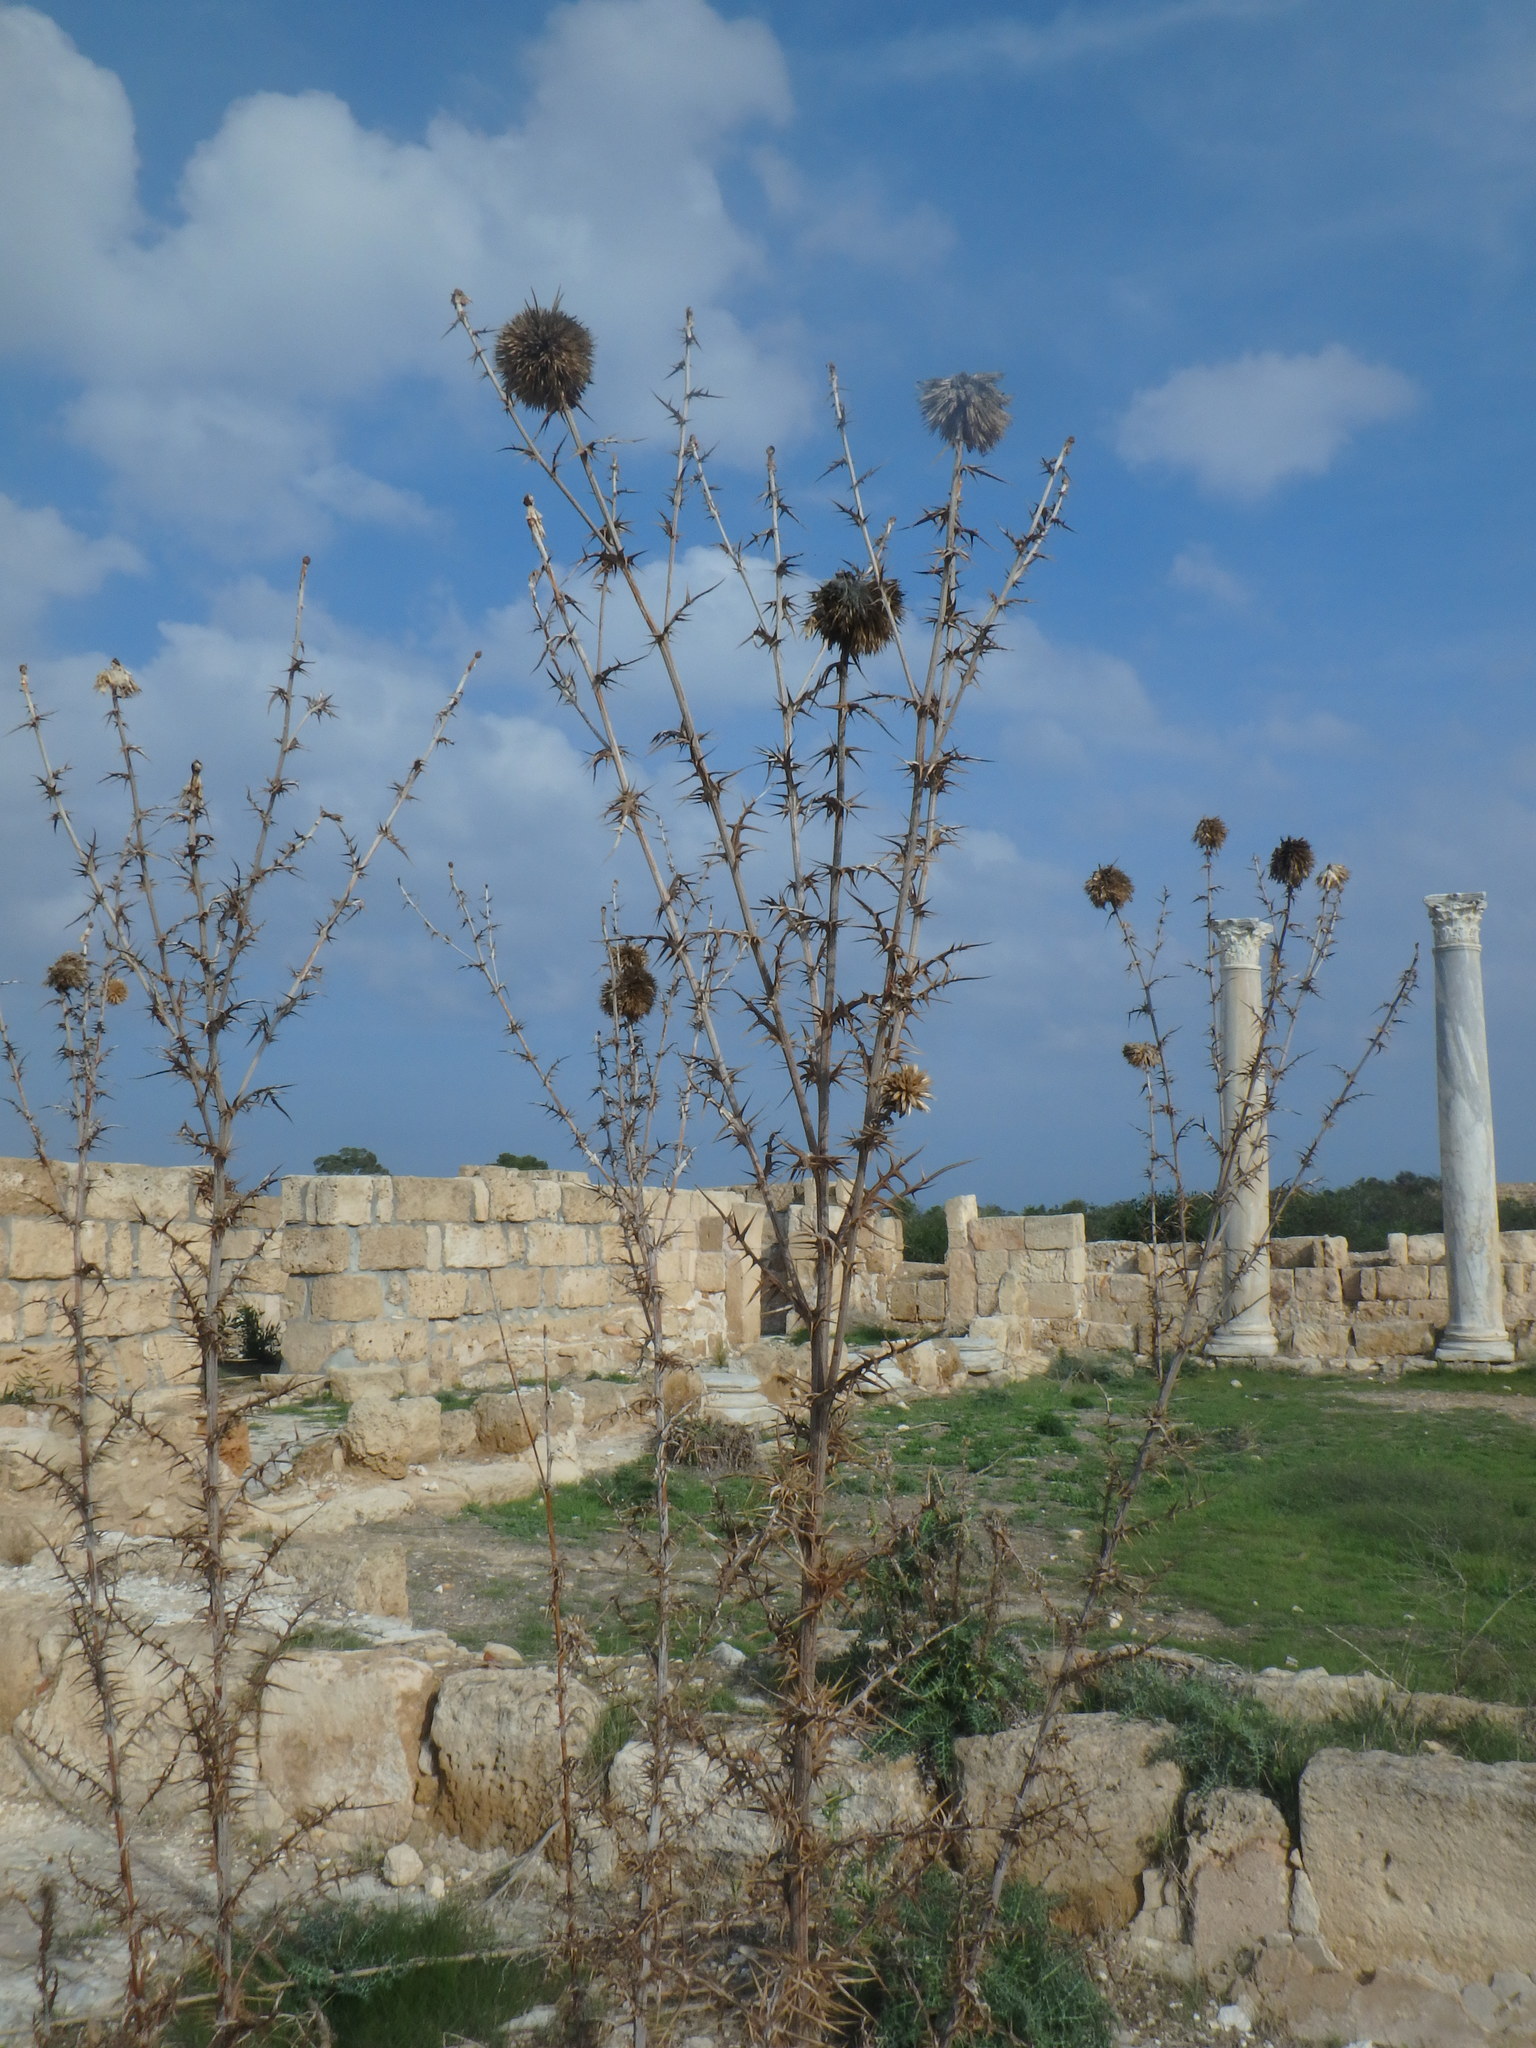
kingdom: Plantae
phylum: Tracheophyta
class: Magnoliopsida
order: Asterales
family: Asteraceae
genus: Echinops
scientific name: Echinops spinosissimus
